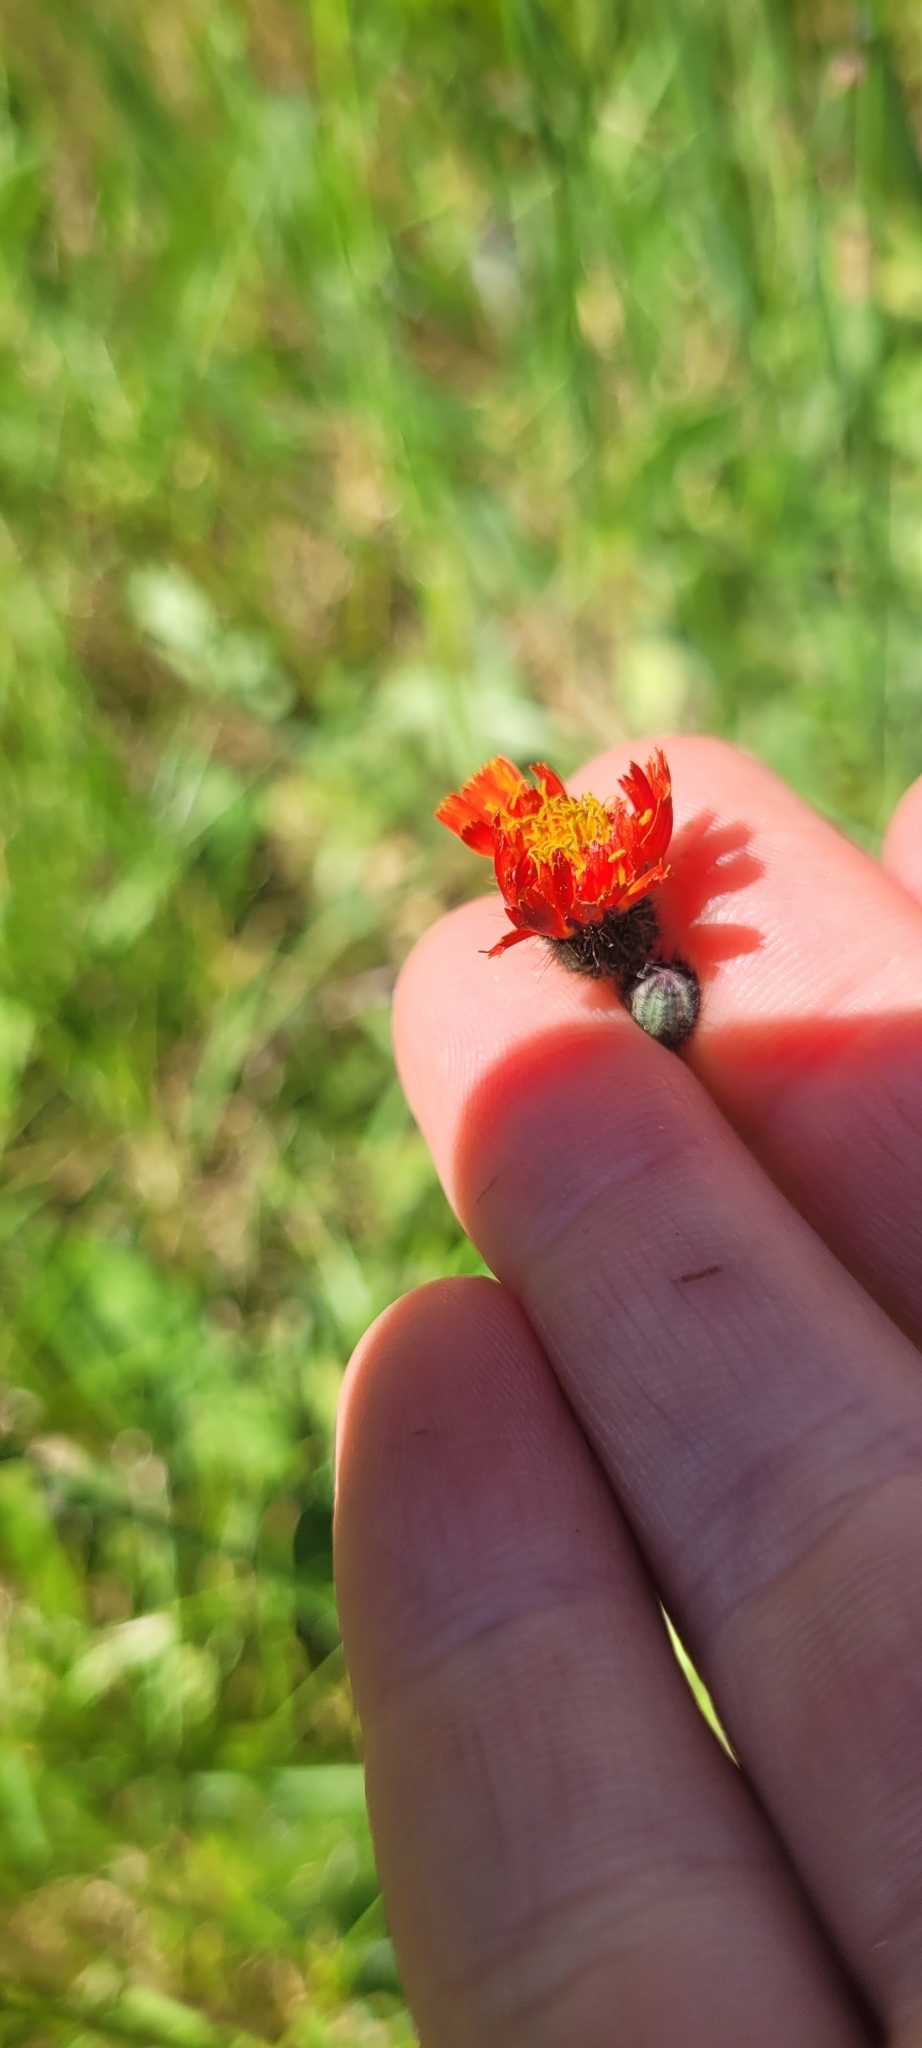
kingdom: Plantae
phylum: Tracheophyta
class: Magnoliopsida
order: Asterales
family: Asteraceae
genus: Pilosella
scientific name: Pilosella aurantiaca
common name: Fox-and-cubs
